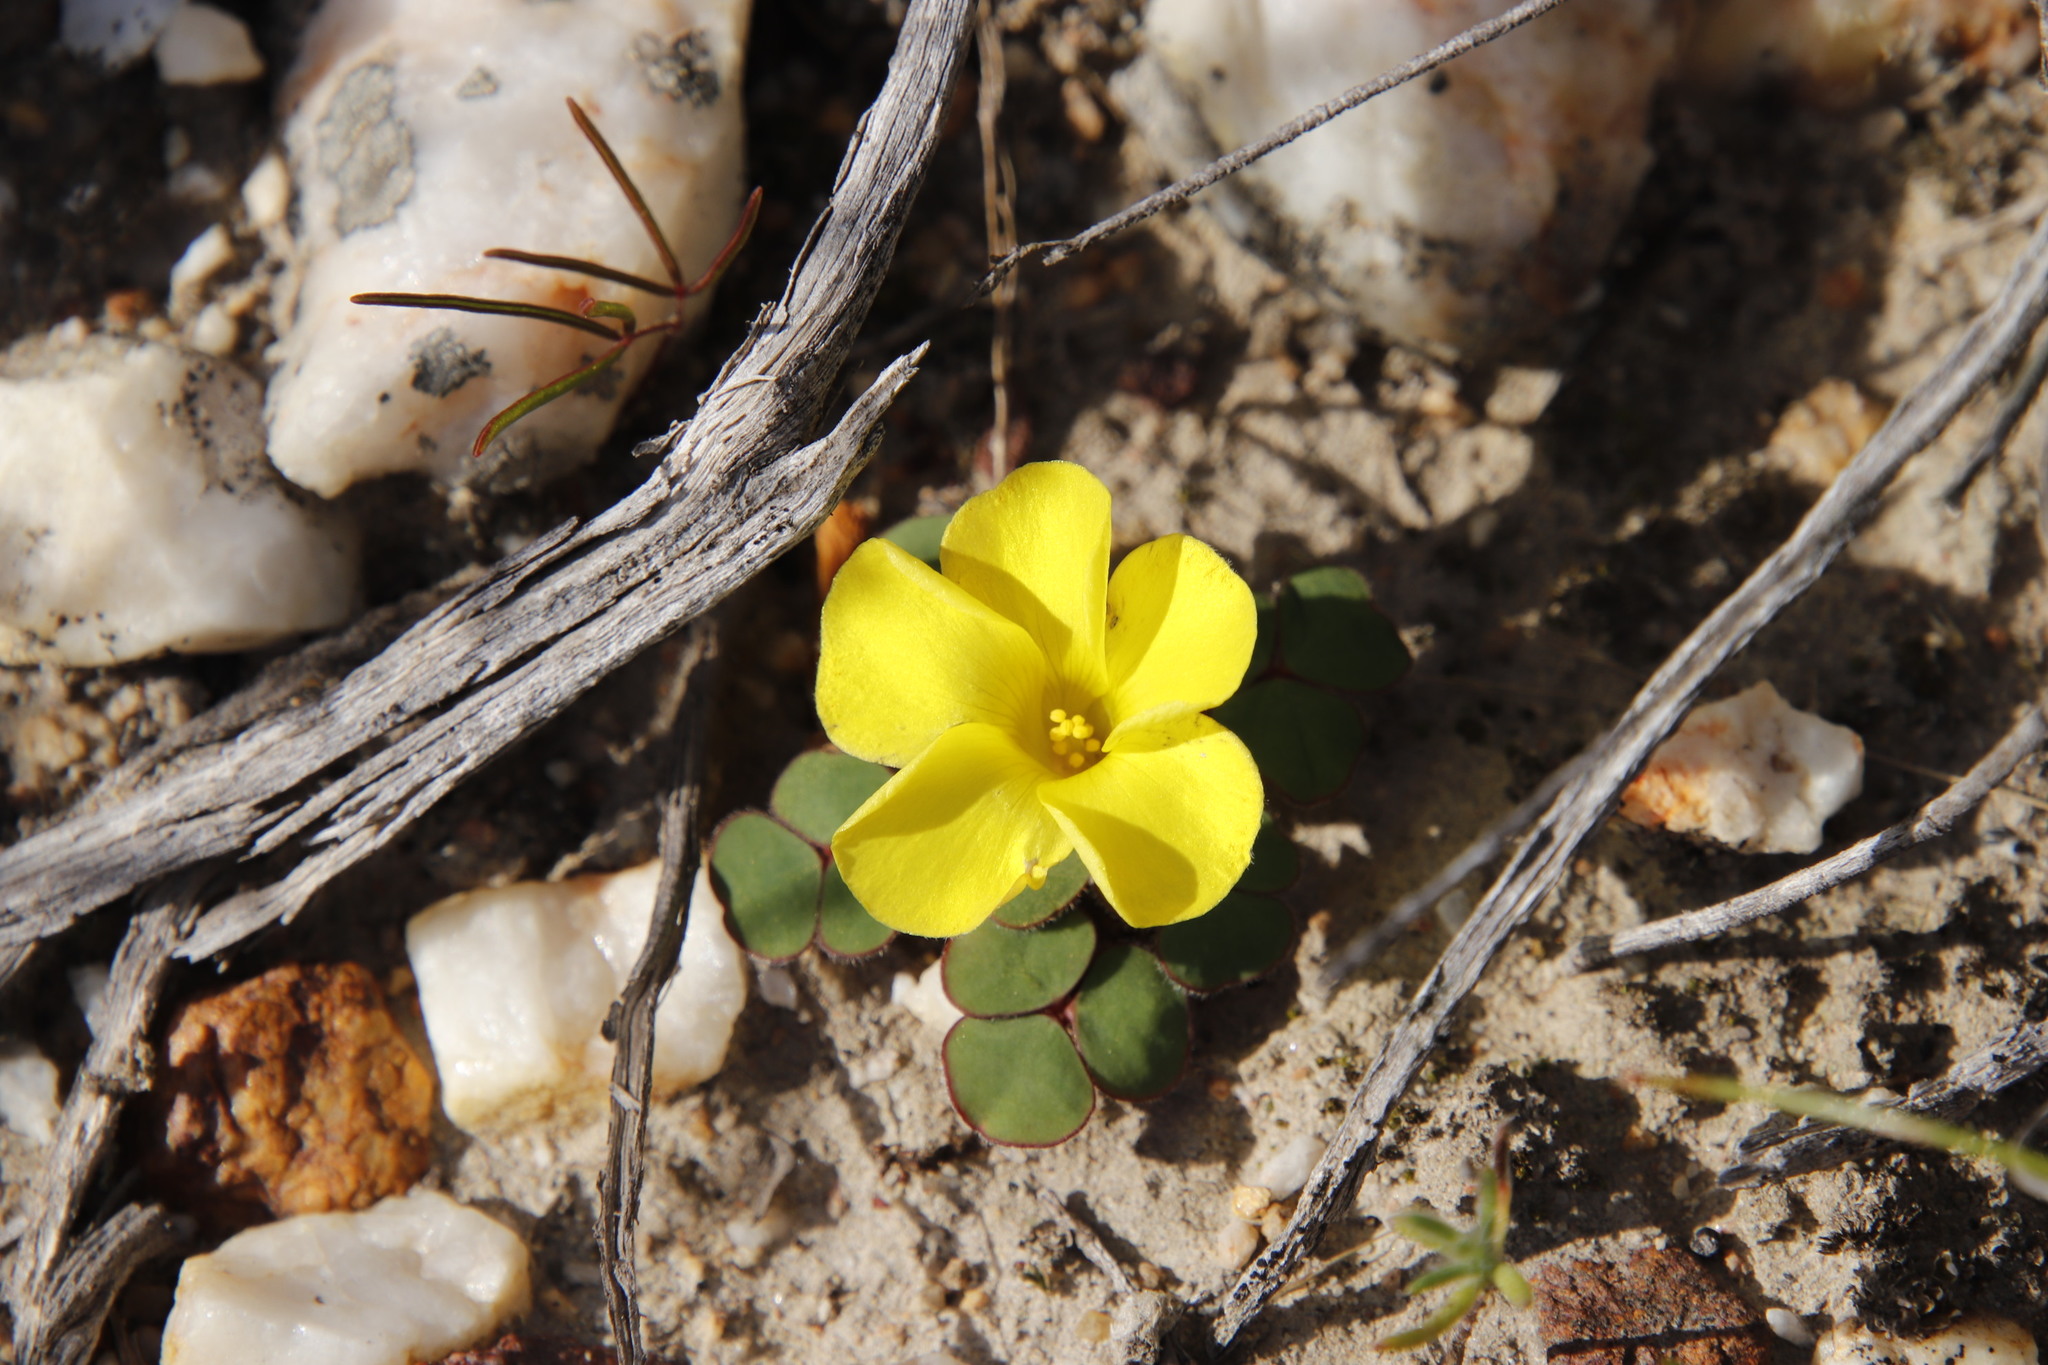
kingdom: Plantae
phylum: Tracheophyta
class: Magnoliopsida
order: Oxalidales
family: Oxalidaceae
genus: Oxalis
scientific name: Oxalis luteola
